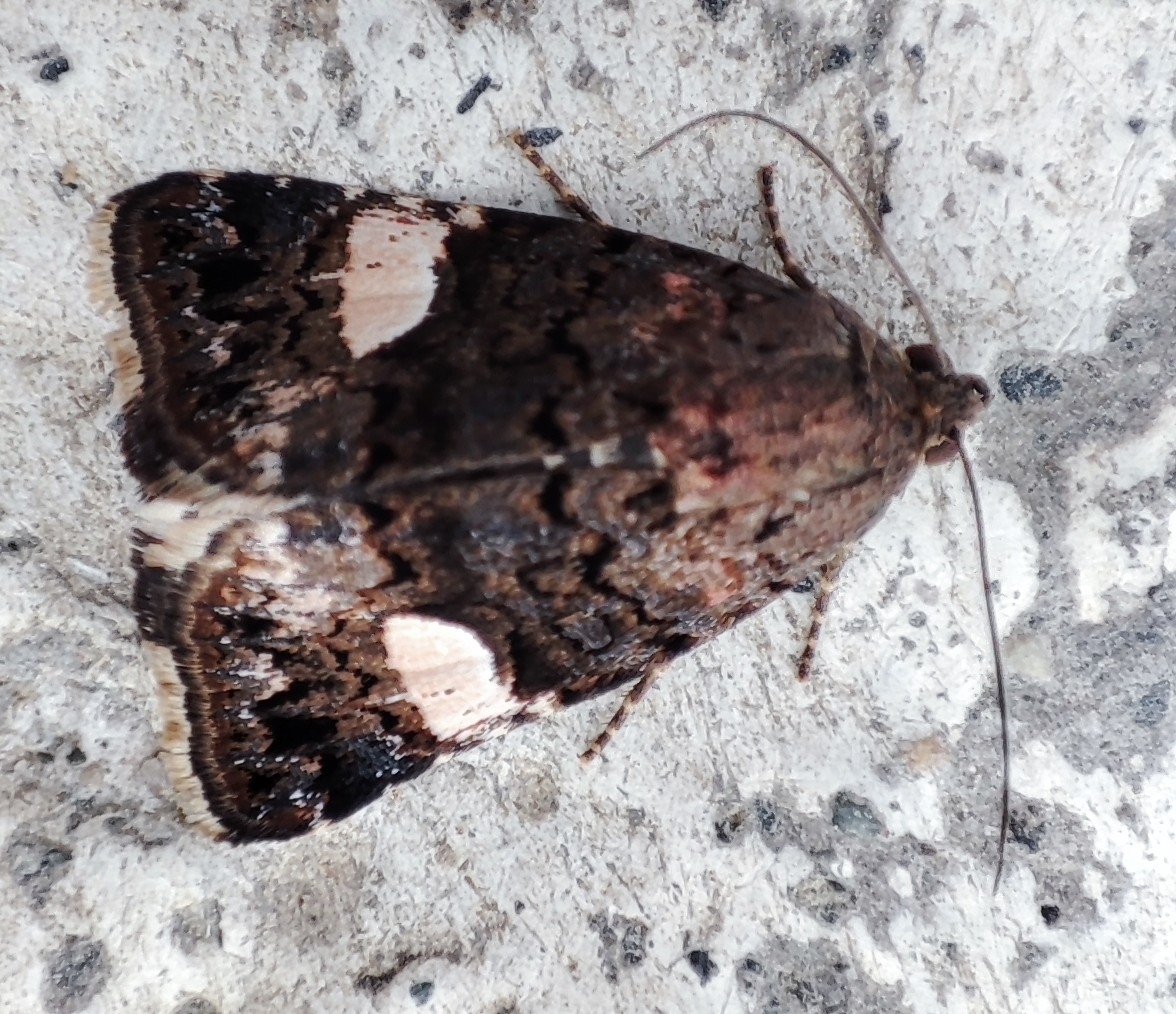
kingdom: Animalia
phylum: Arthropoda
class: Insecta
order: Lepidoptera
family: Erebidae
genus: Tyta
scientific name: Tyta luctuosa
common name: Four-spotted
